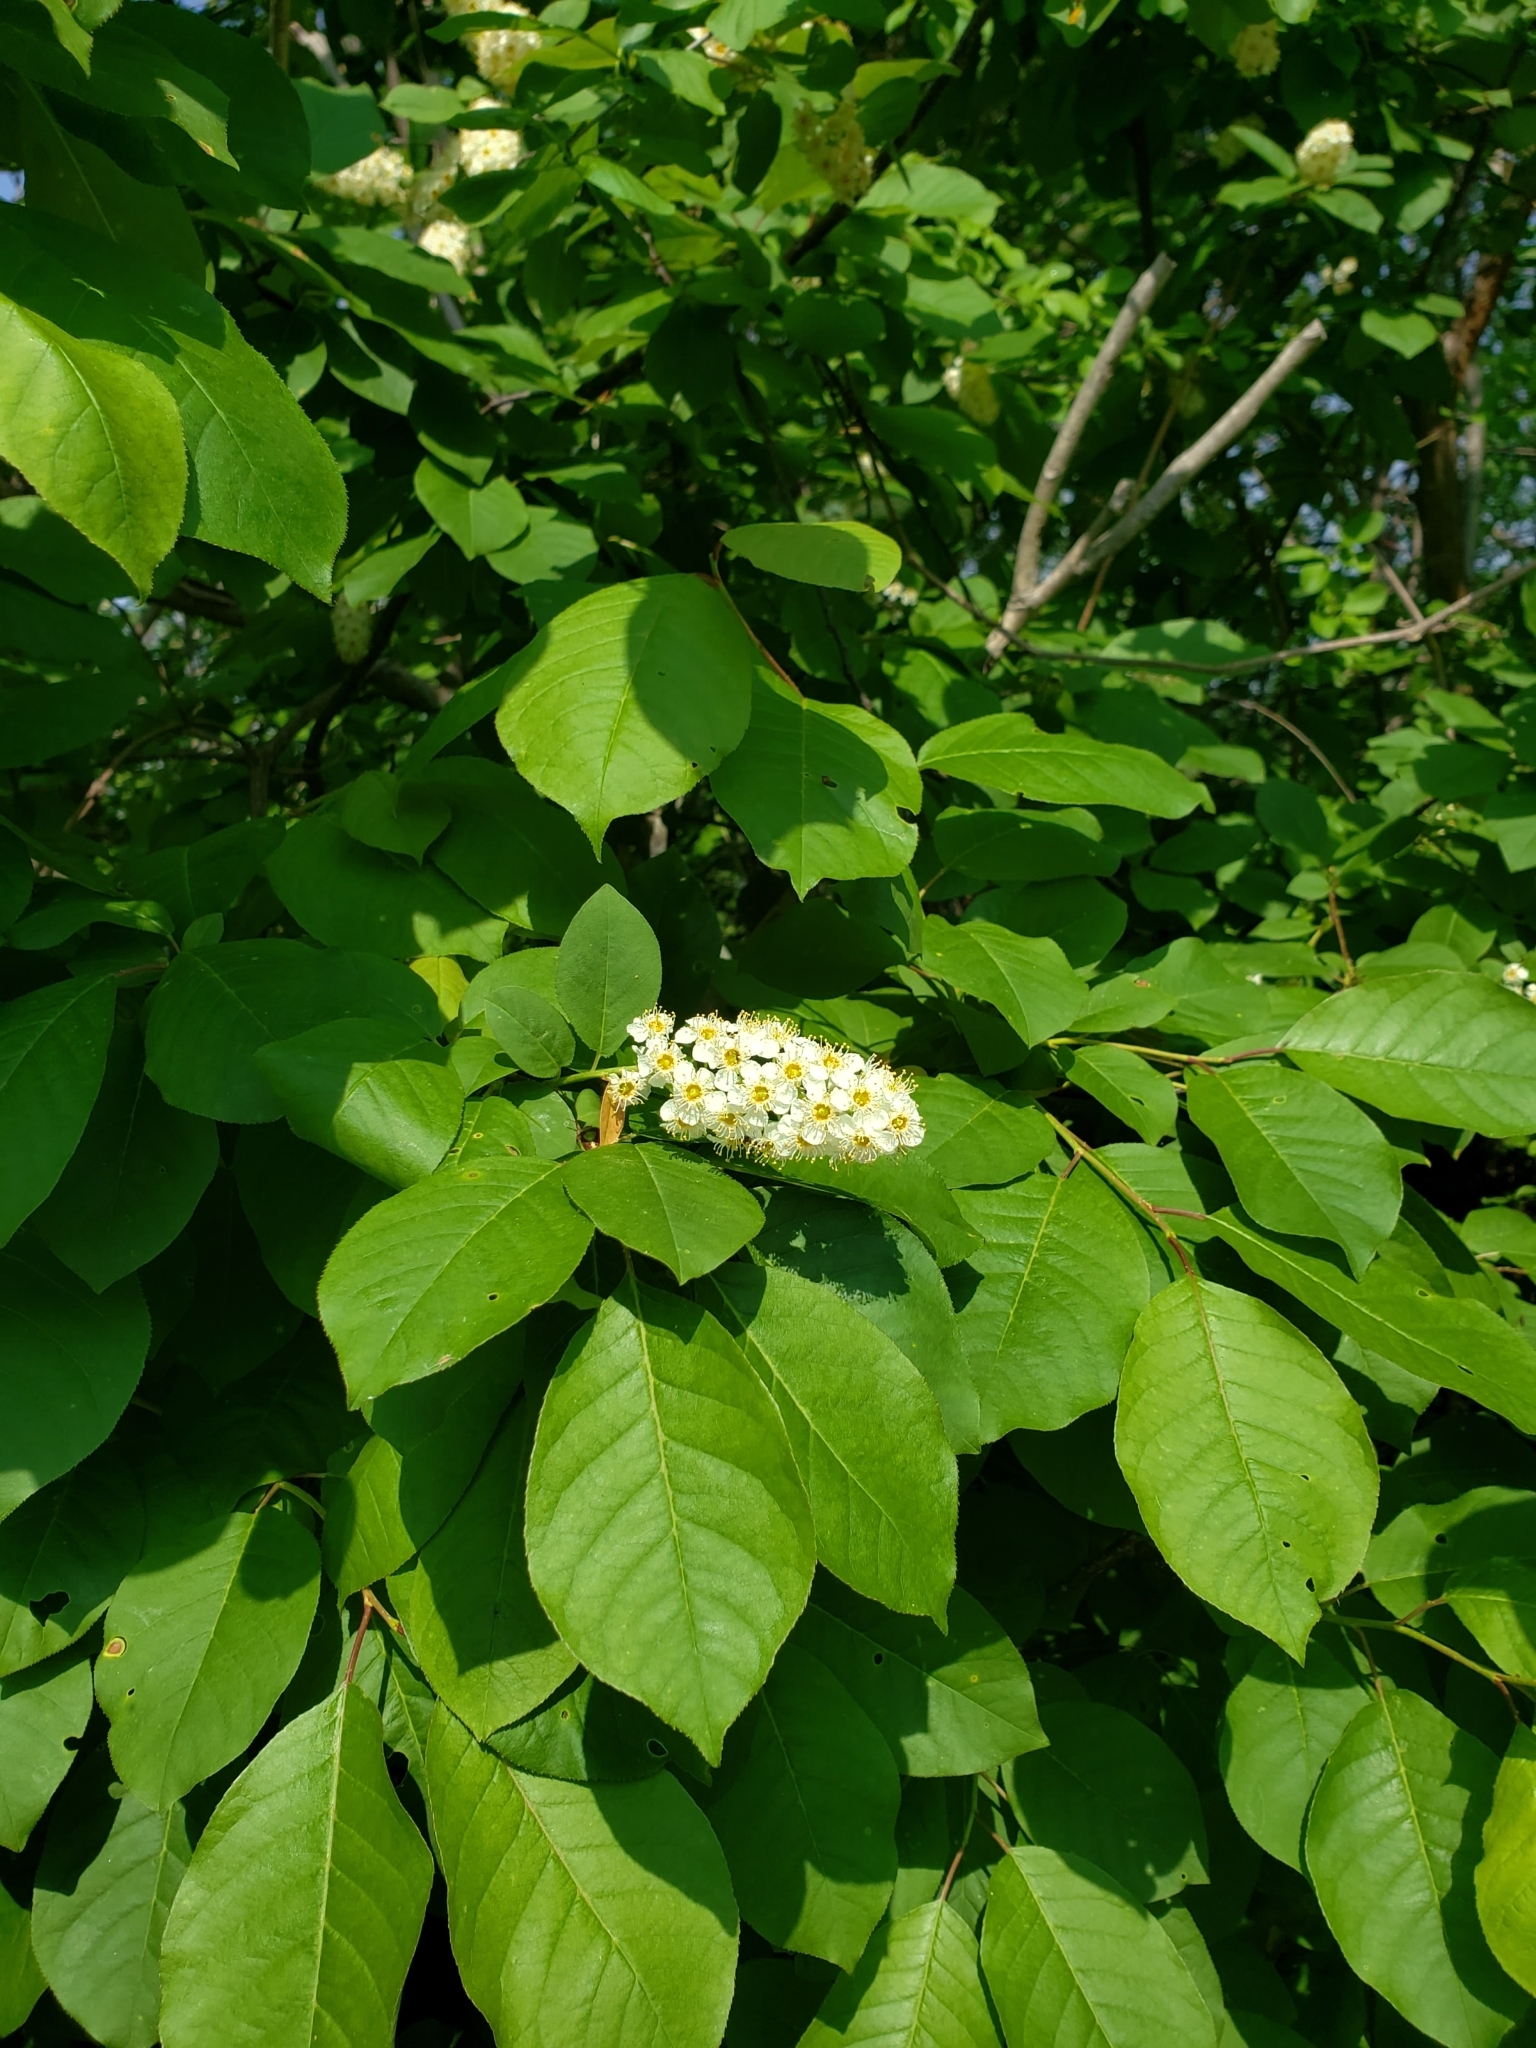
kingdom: Plantae
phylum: Tracheophyta
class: Magnoliopsida
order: Rosales
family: Rosaceae
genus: Prunus
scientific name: Prunus virginiana
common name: Chokecherry
